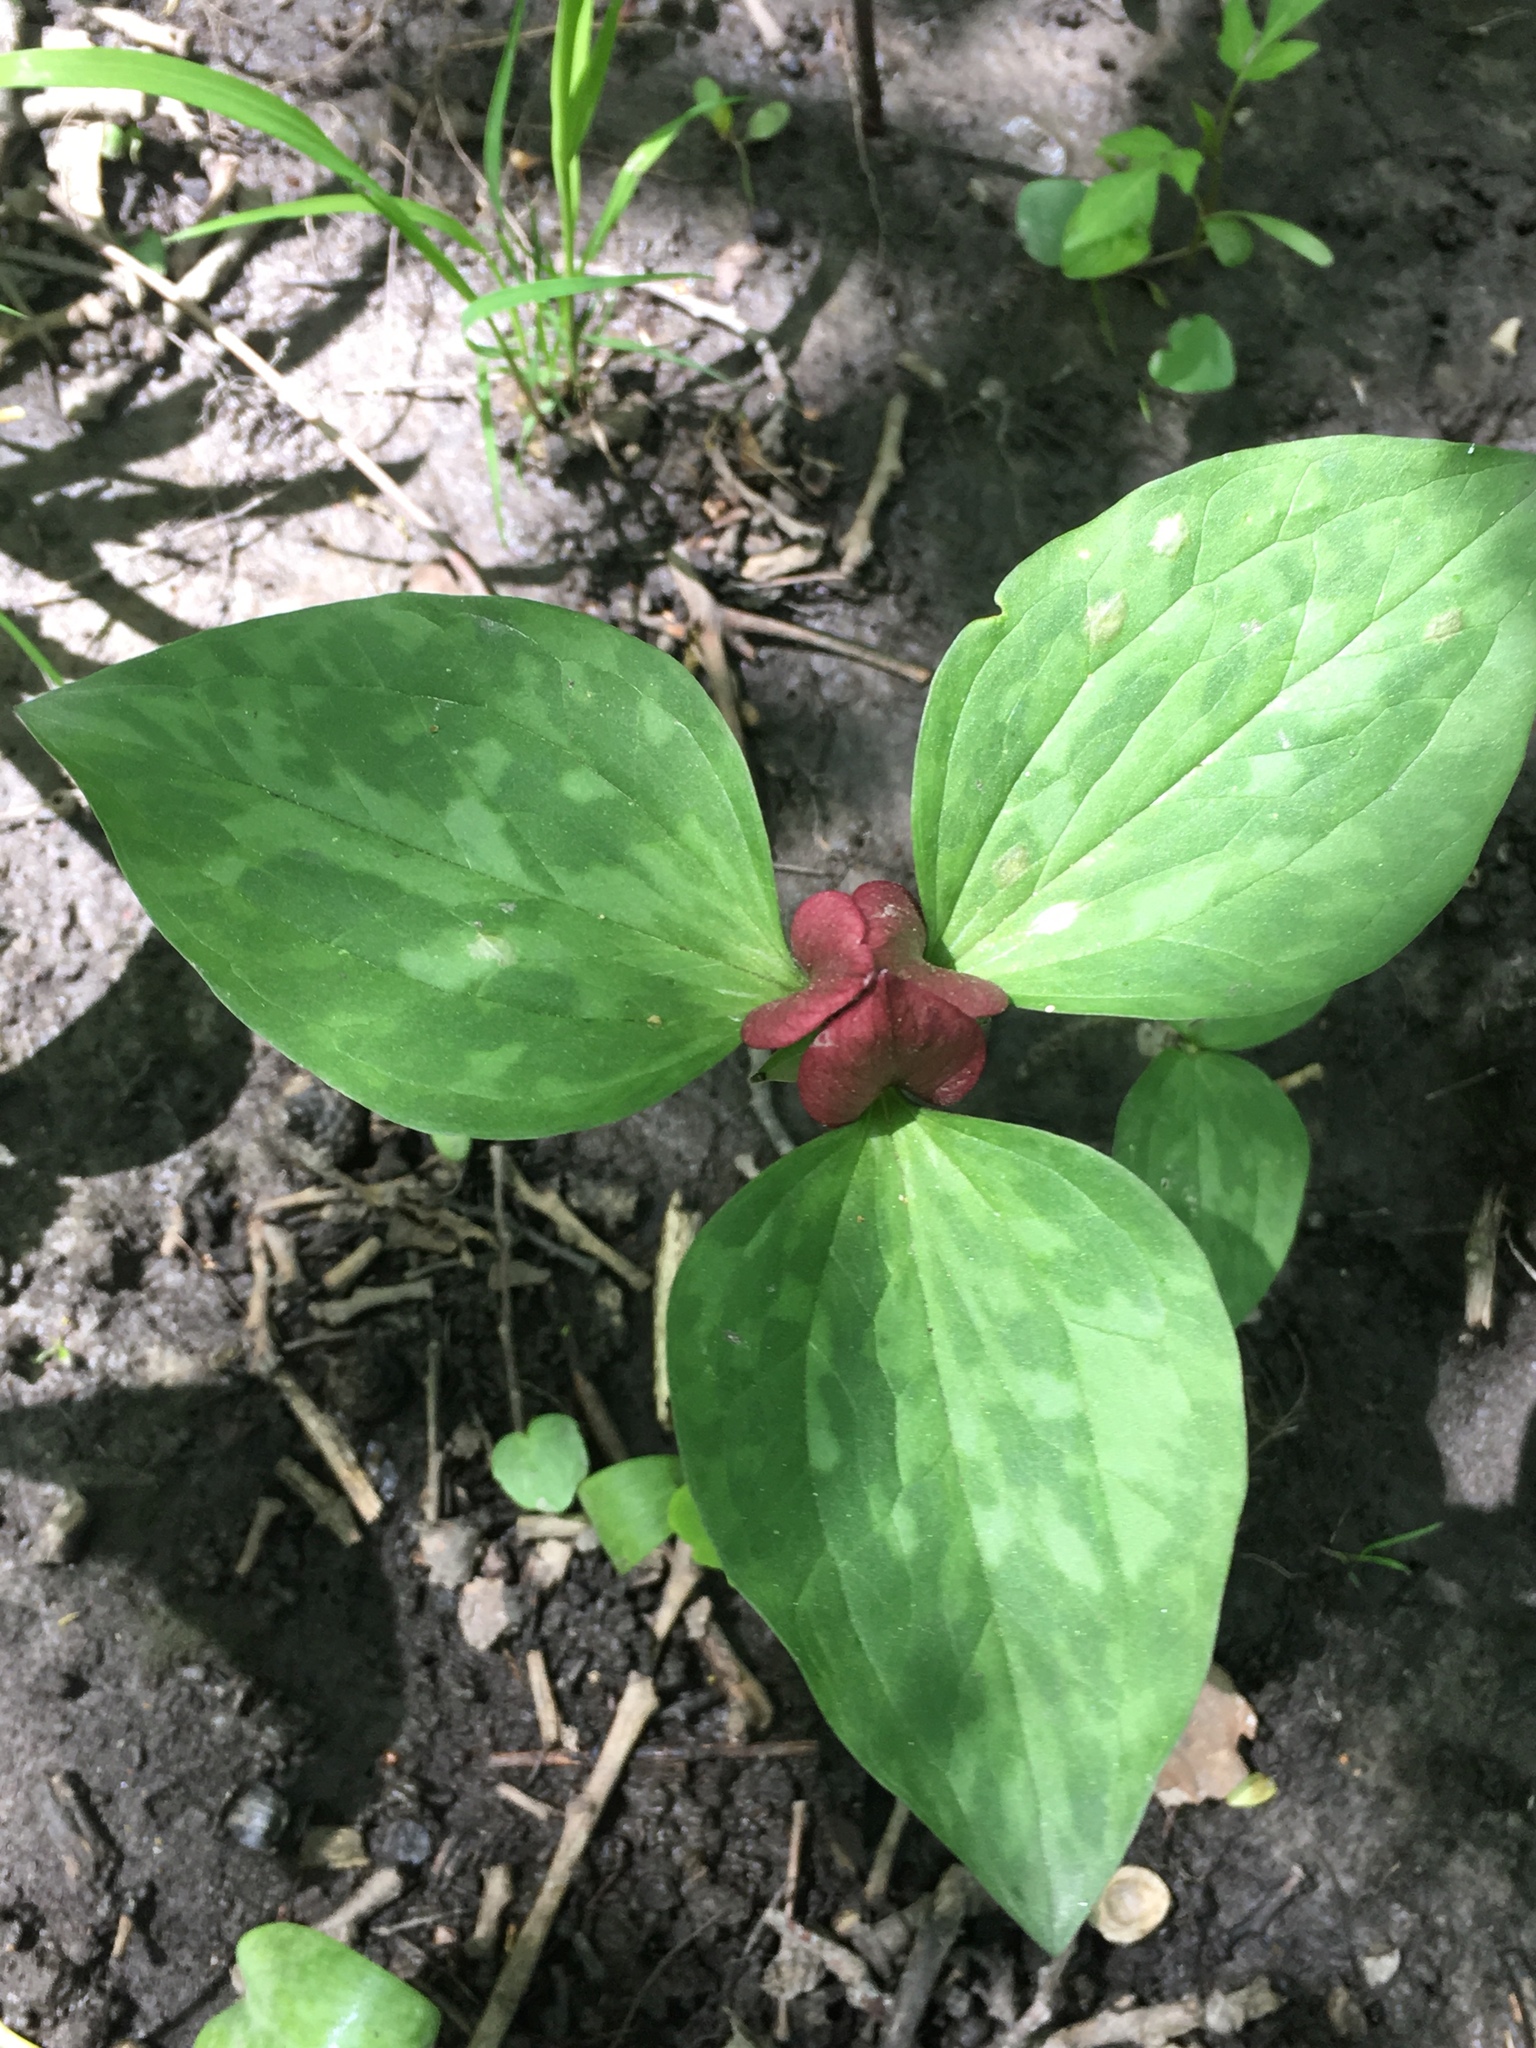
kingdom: Plantae
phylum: Tracheophyta
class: Liliopsida
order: Liliales
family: Melanthiaceae
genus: Trillium
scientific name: Trillium recurvatum
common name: Bloody butcher
